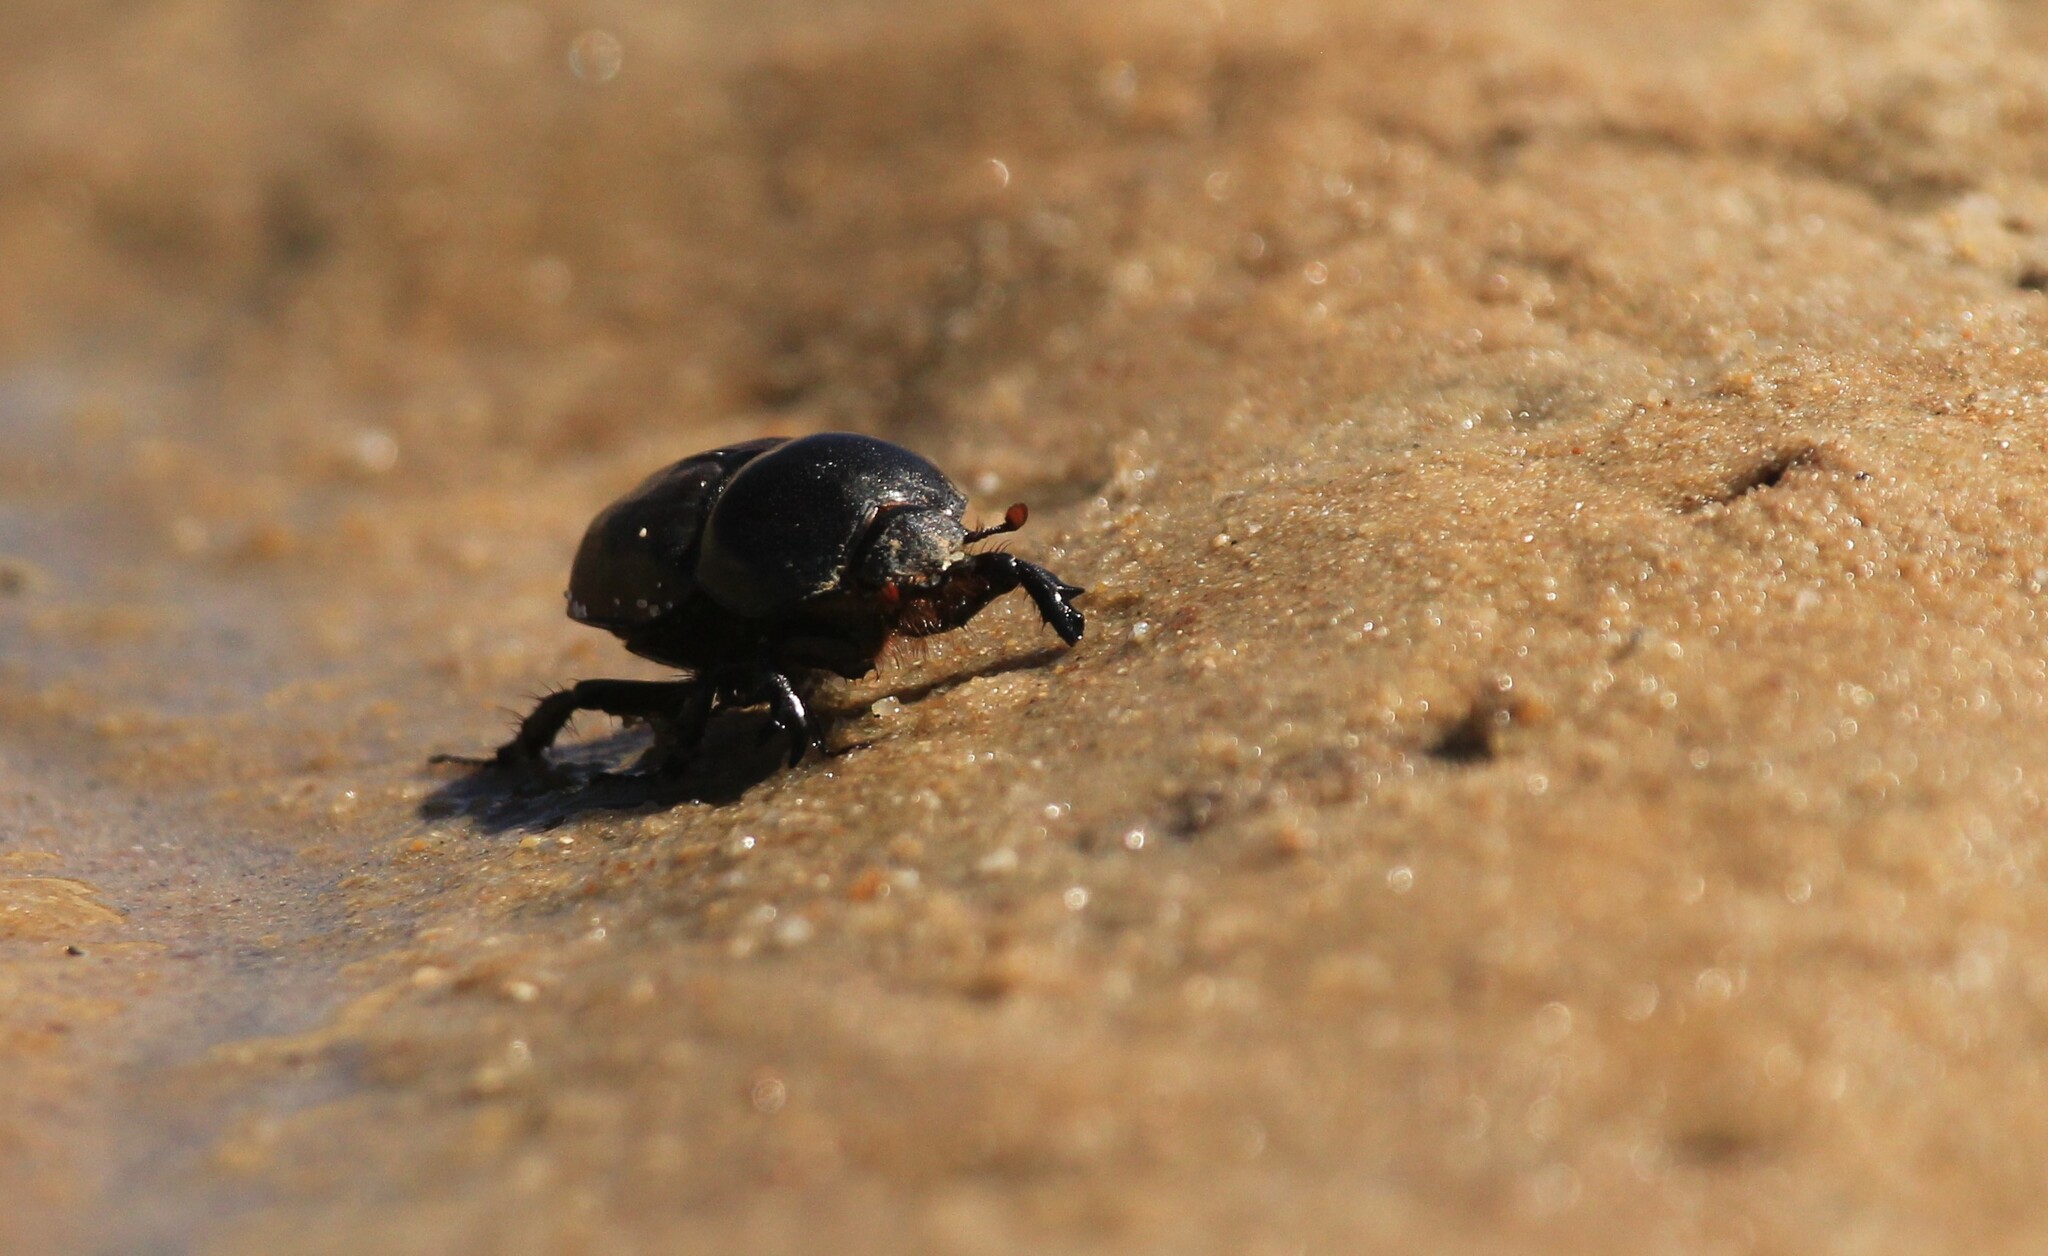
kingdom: Animalia
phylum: Arthropoda
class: Insecta
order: Coleoptera
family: Scarabaeidae
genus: Diloboderus
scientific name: Diloboderus abderus
